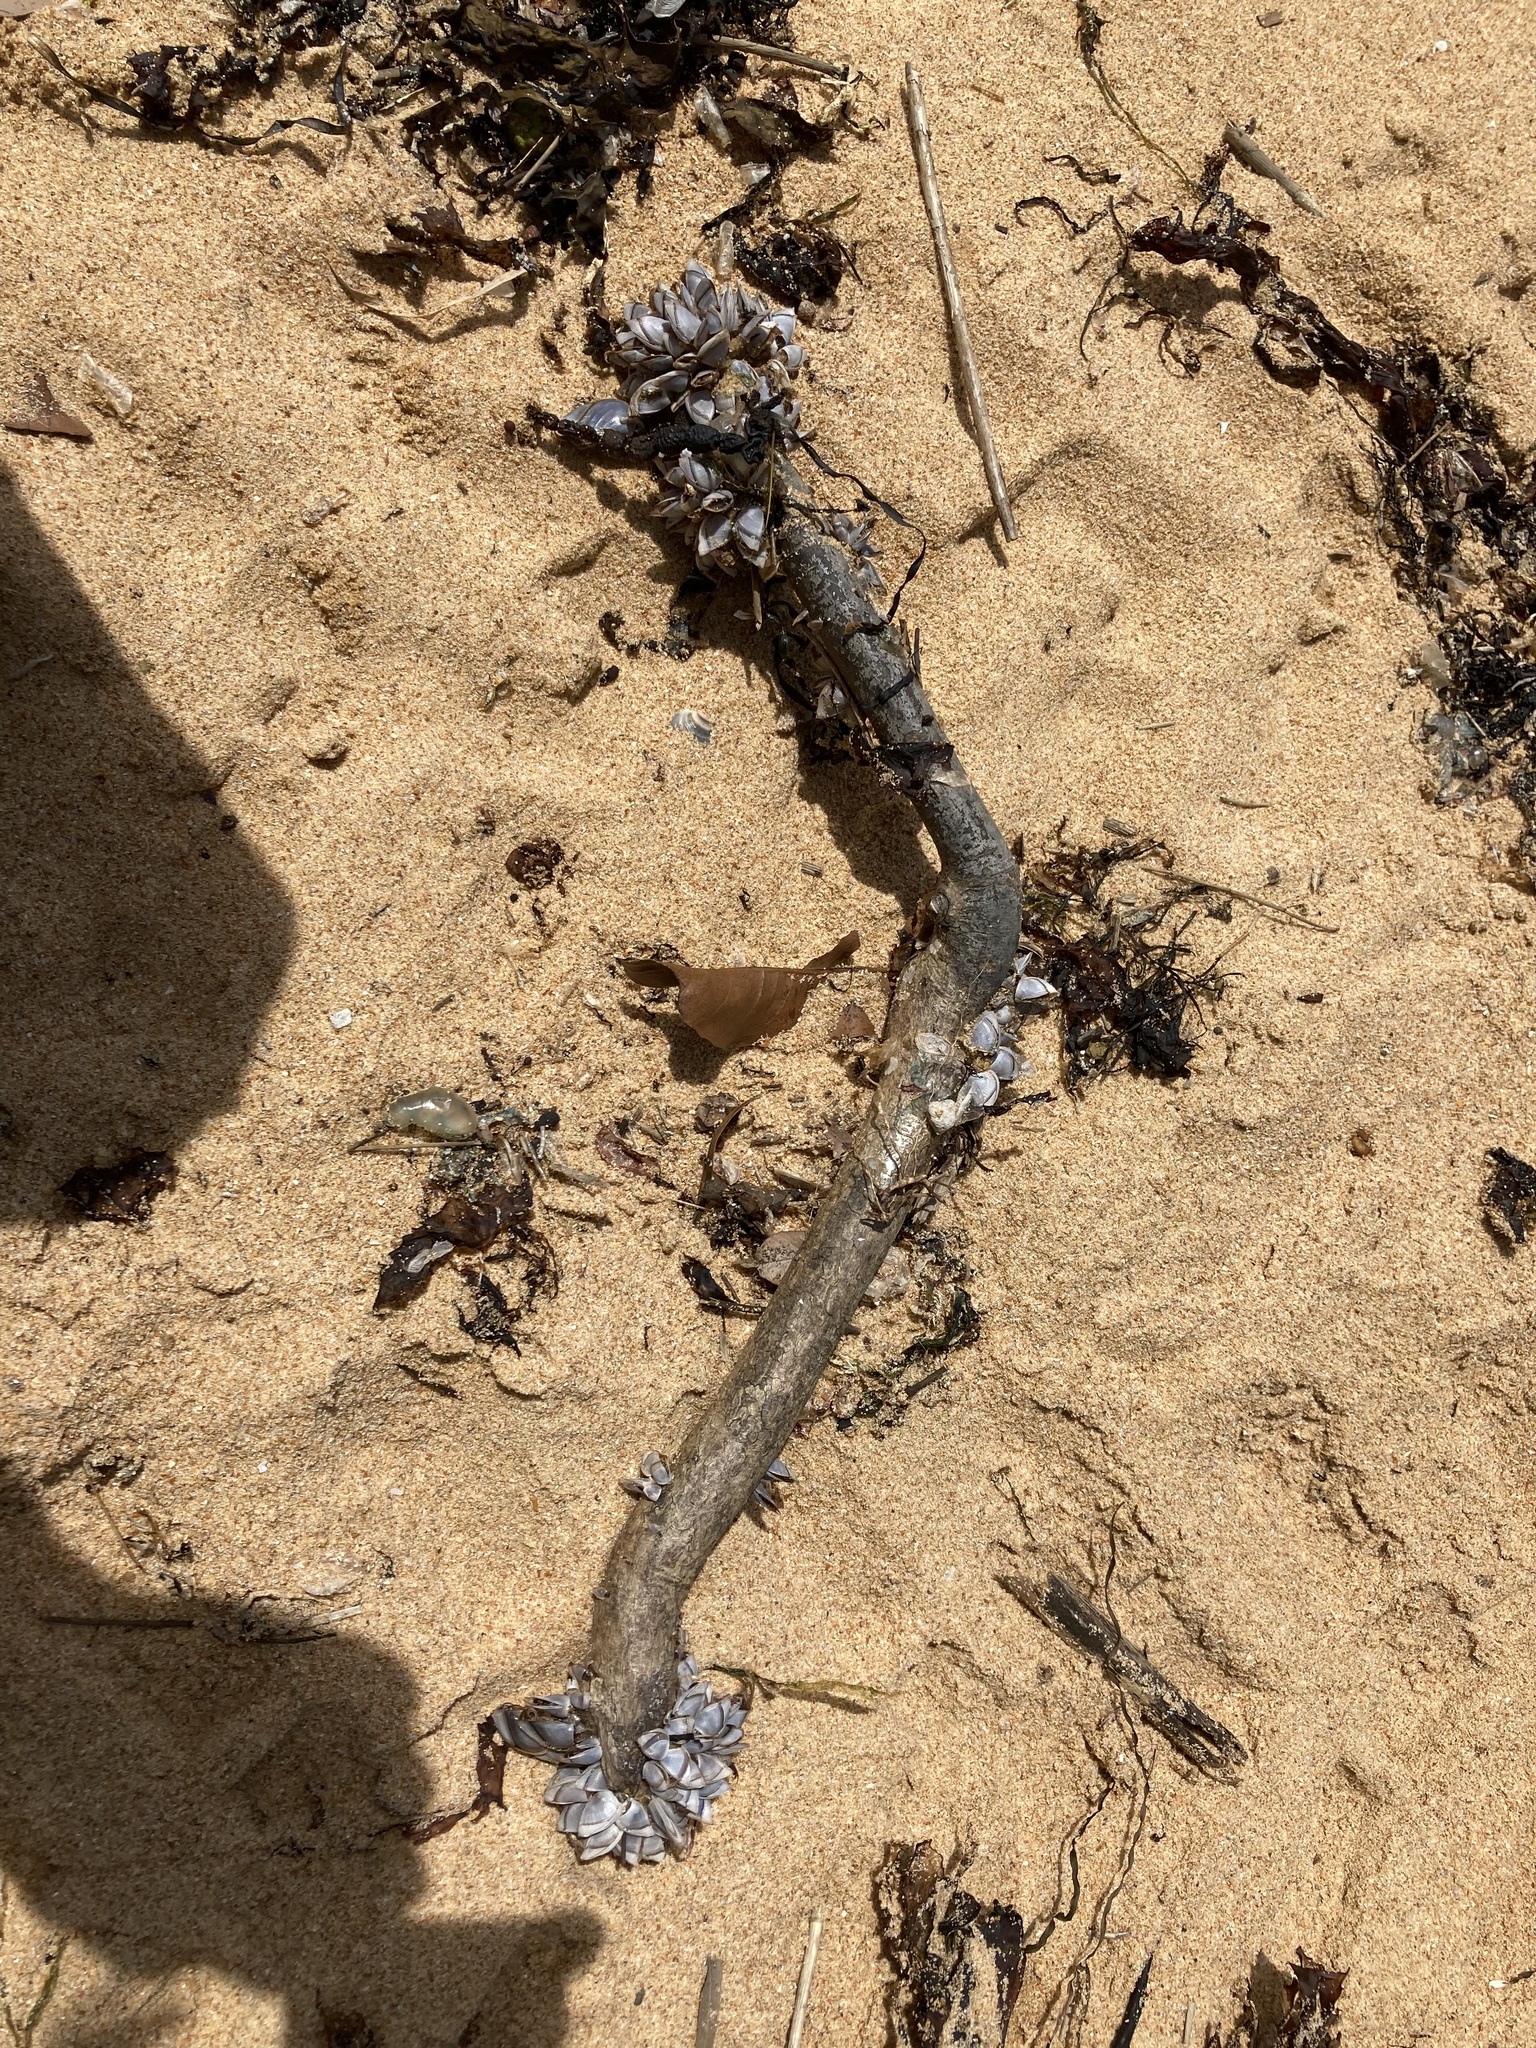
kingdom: Animalia
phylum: Arthropoda
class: Maxillopoda
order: Pedunculata
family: Lepadidae
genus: Lepas
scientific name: Lepas pectinata
